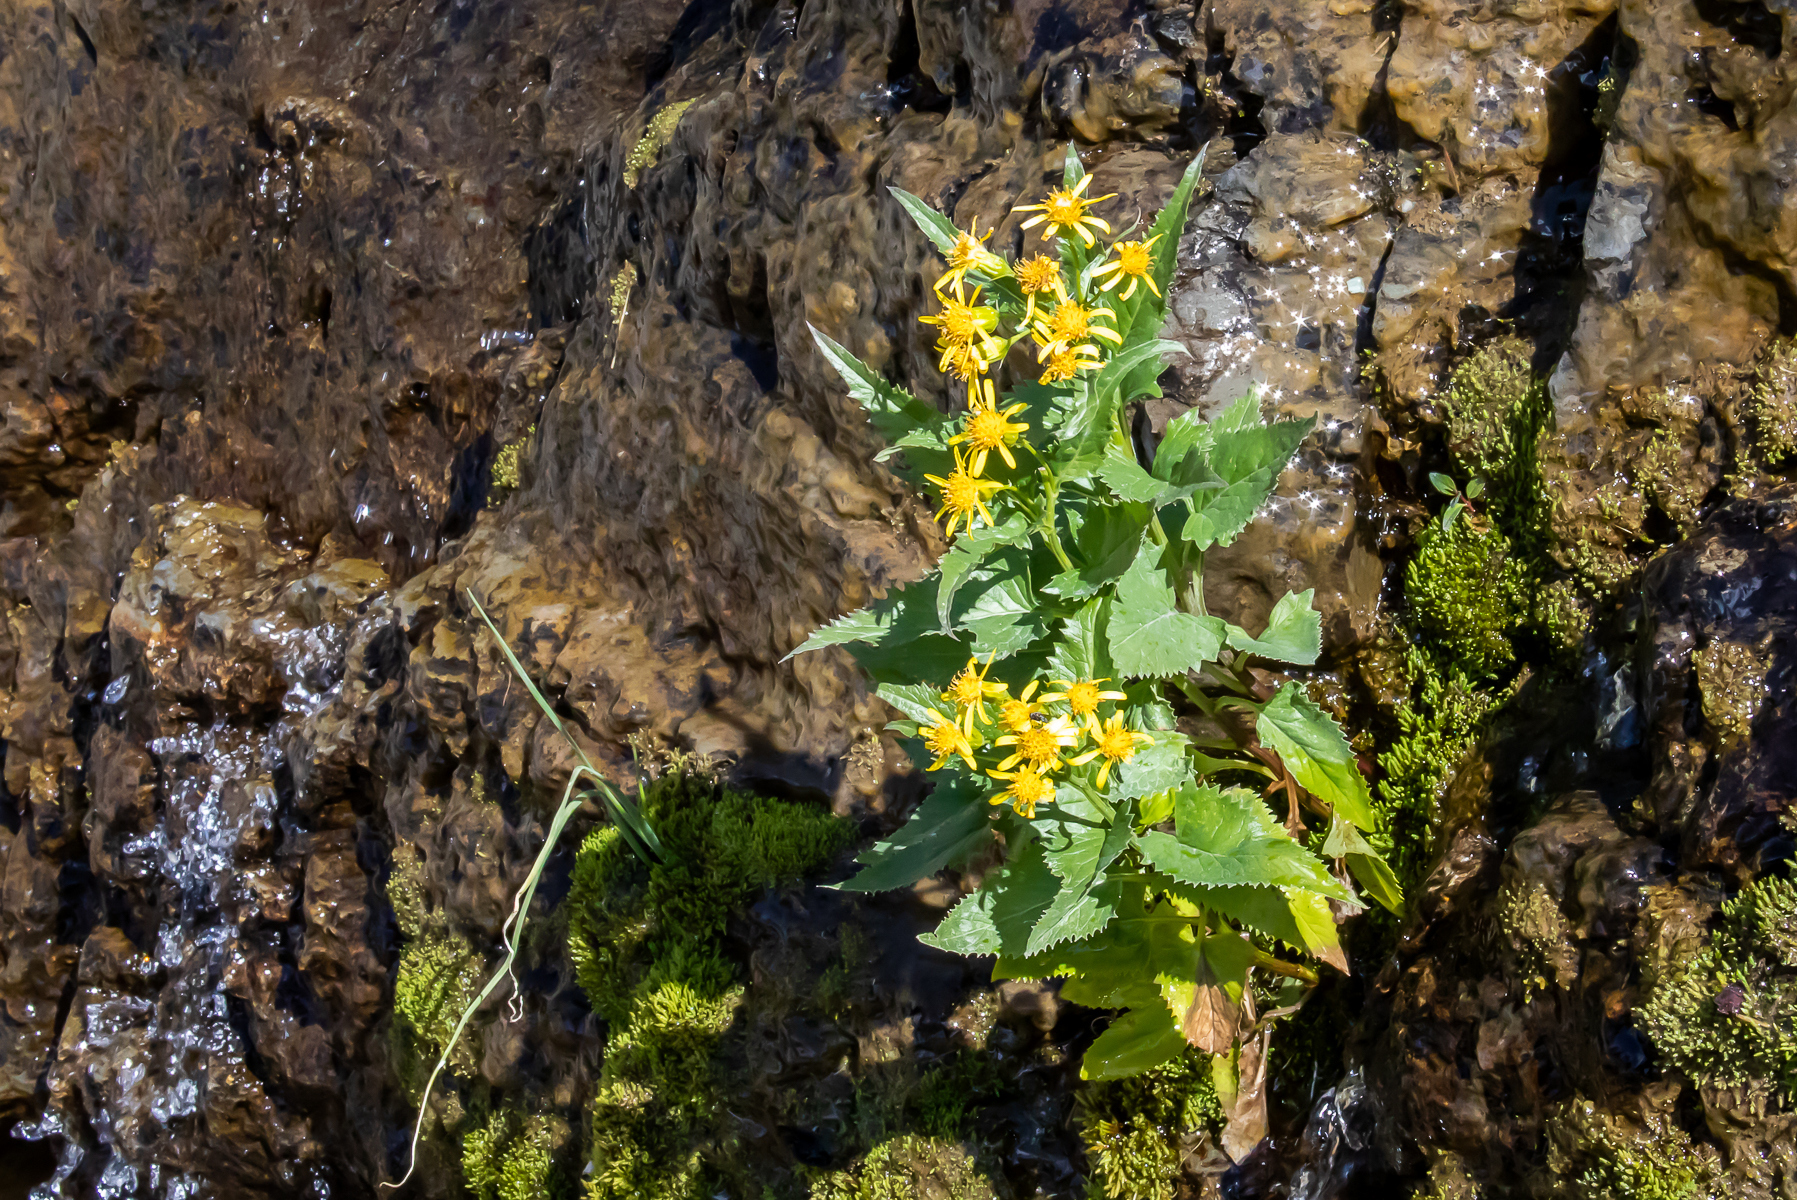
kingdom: Plantae
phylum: Tracheophyta
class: Magnoliopsida
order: Asterales
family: Asteraceae
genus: Senecio
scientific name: Senecio triangularis
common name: Arrowleaf butterweed
